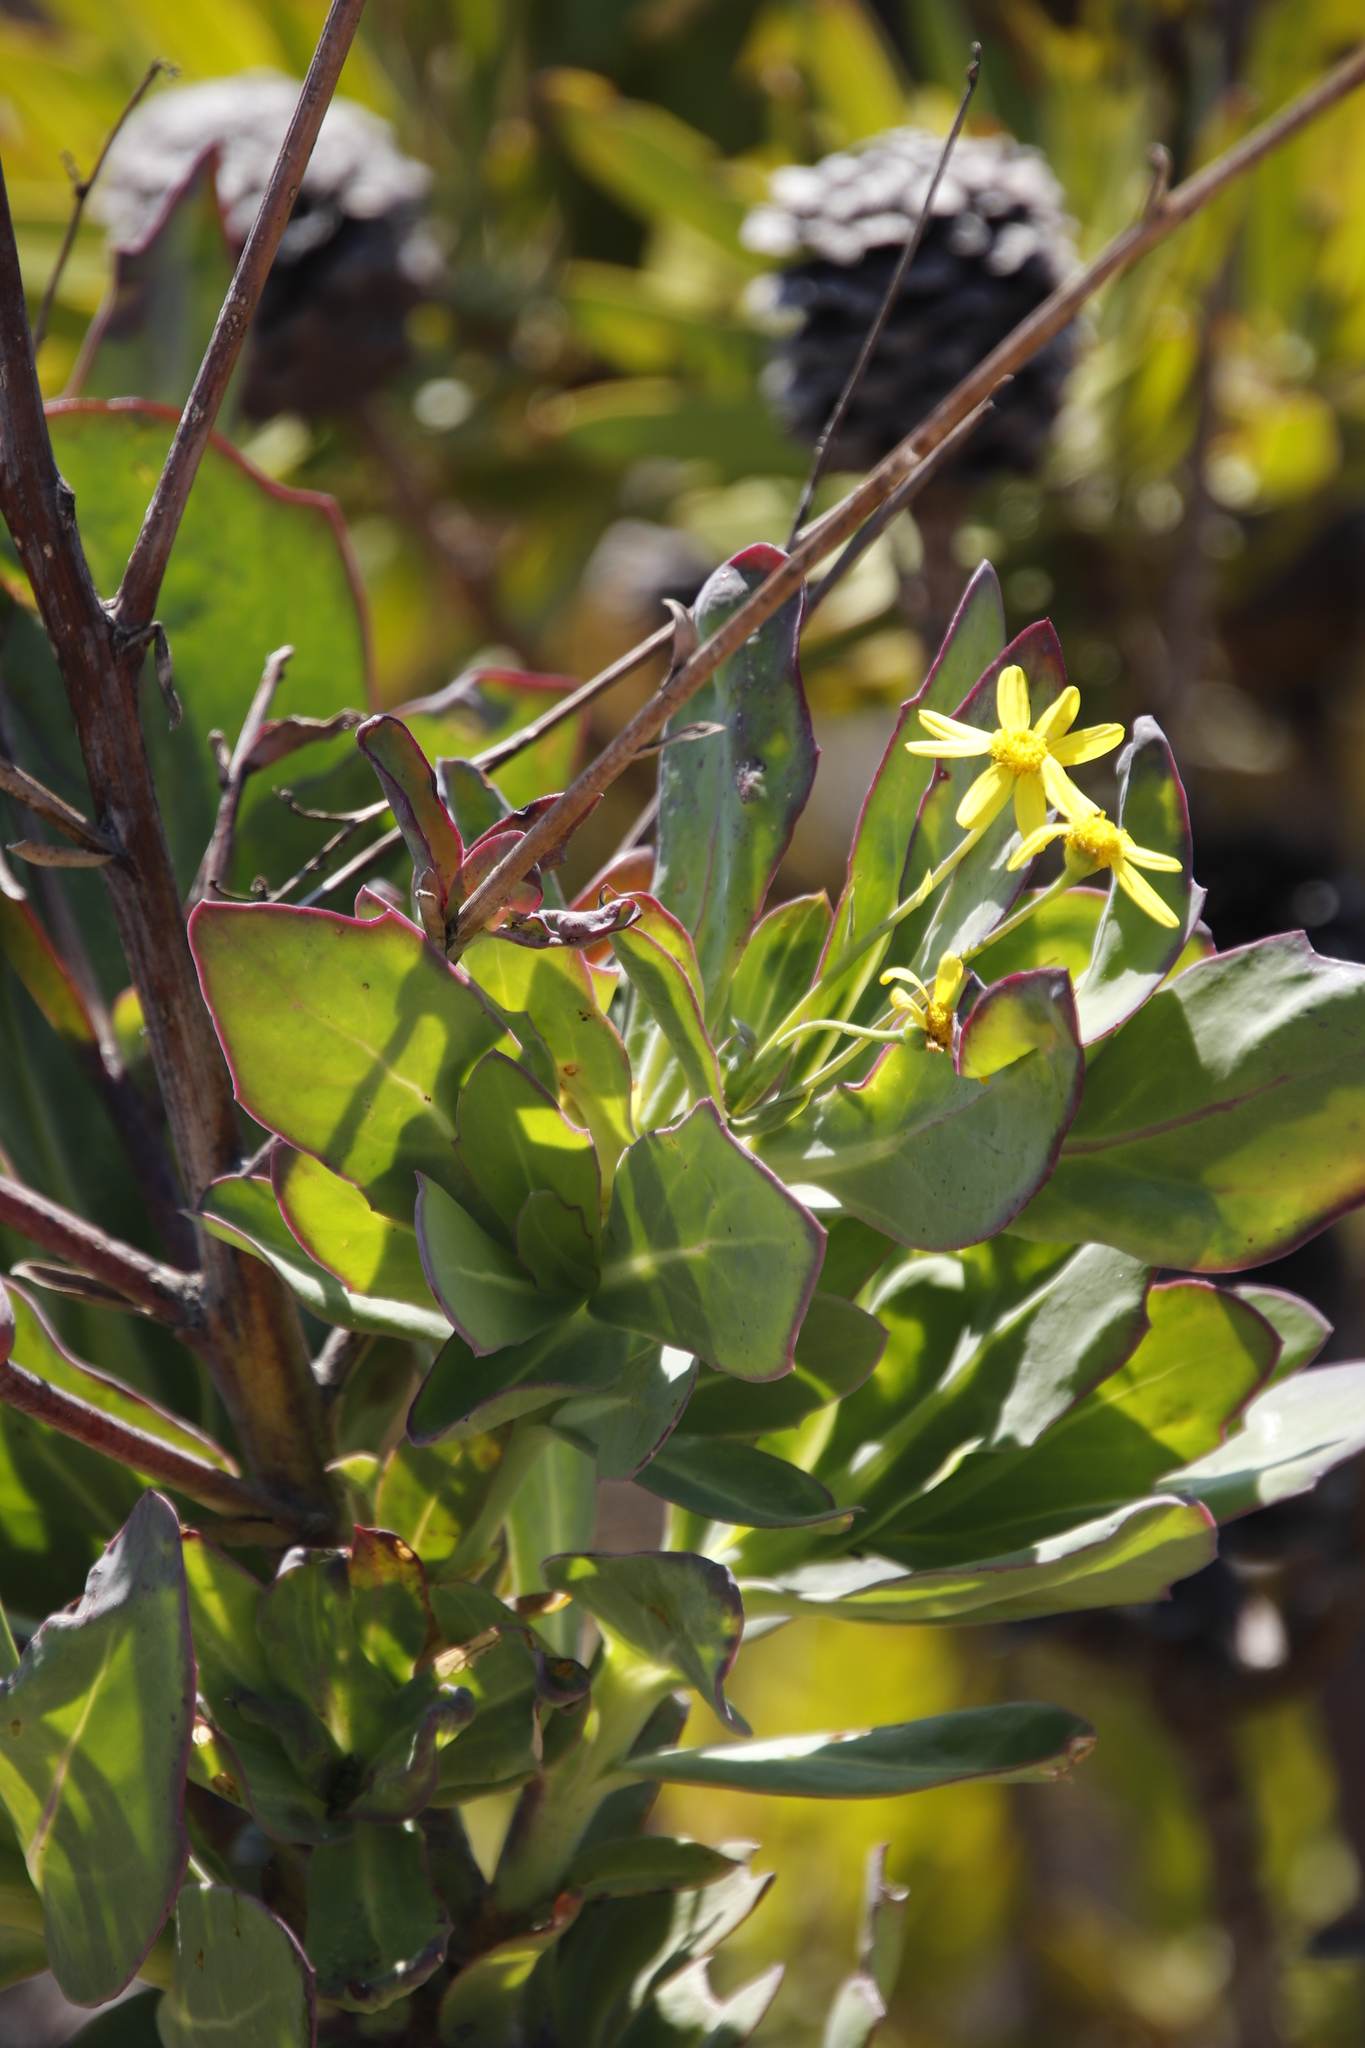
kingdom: Plantae
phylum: Tracheophyta
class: Magnoliopsida
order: Asterales
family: Asteraceae
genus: Othonna
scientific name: Othonna quinquedentata
